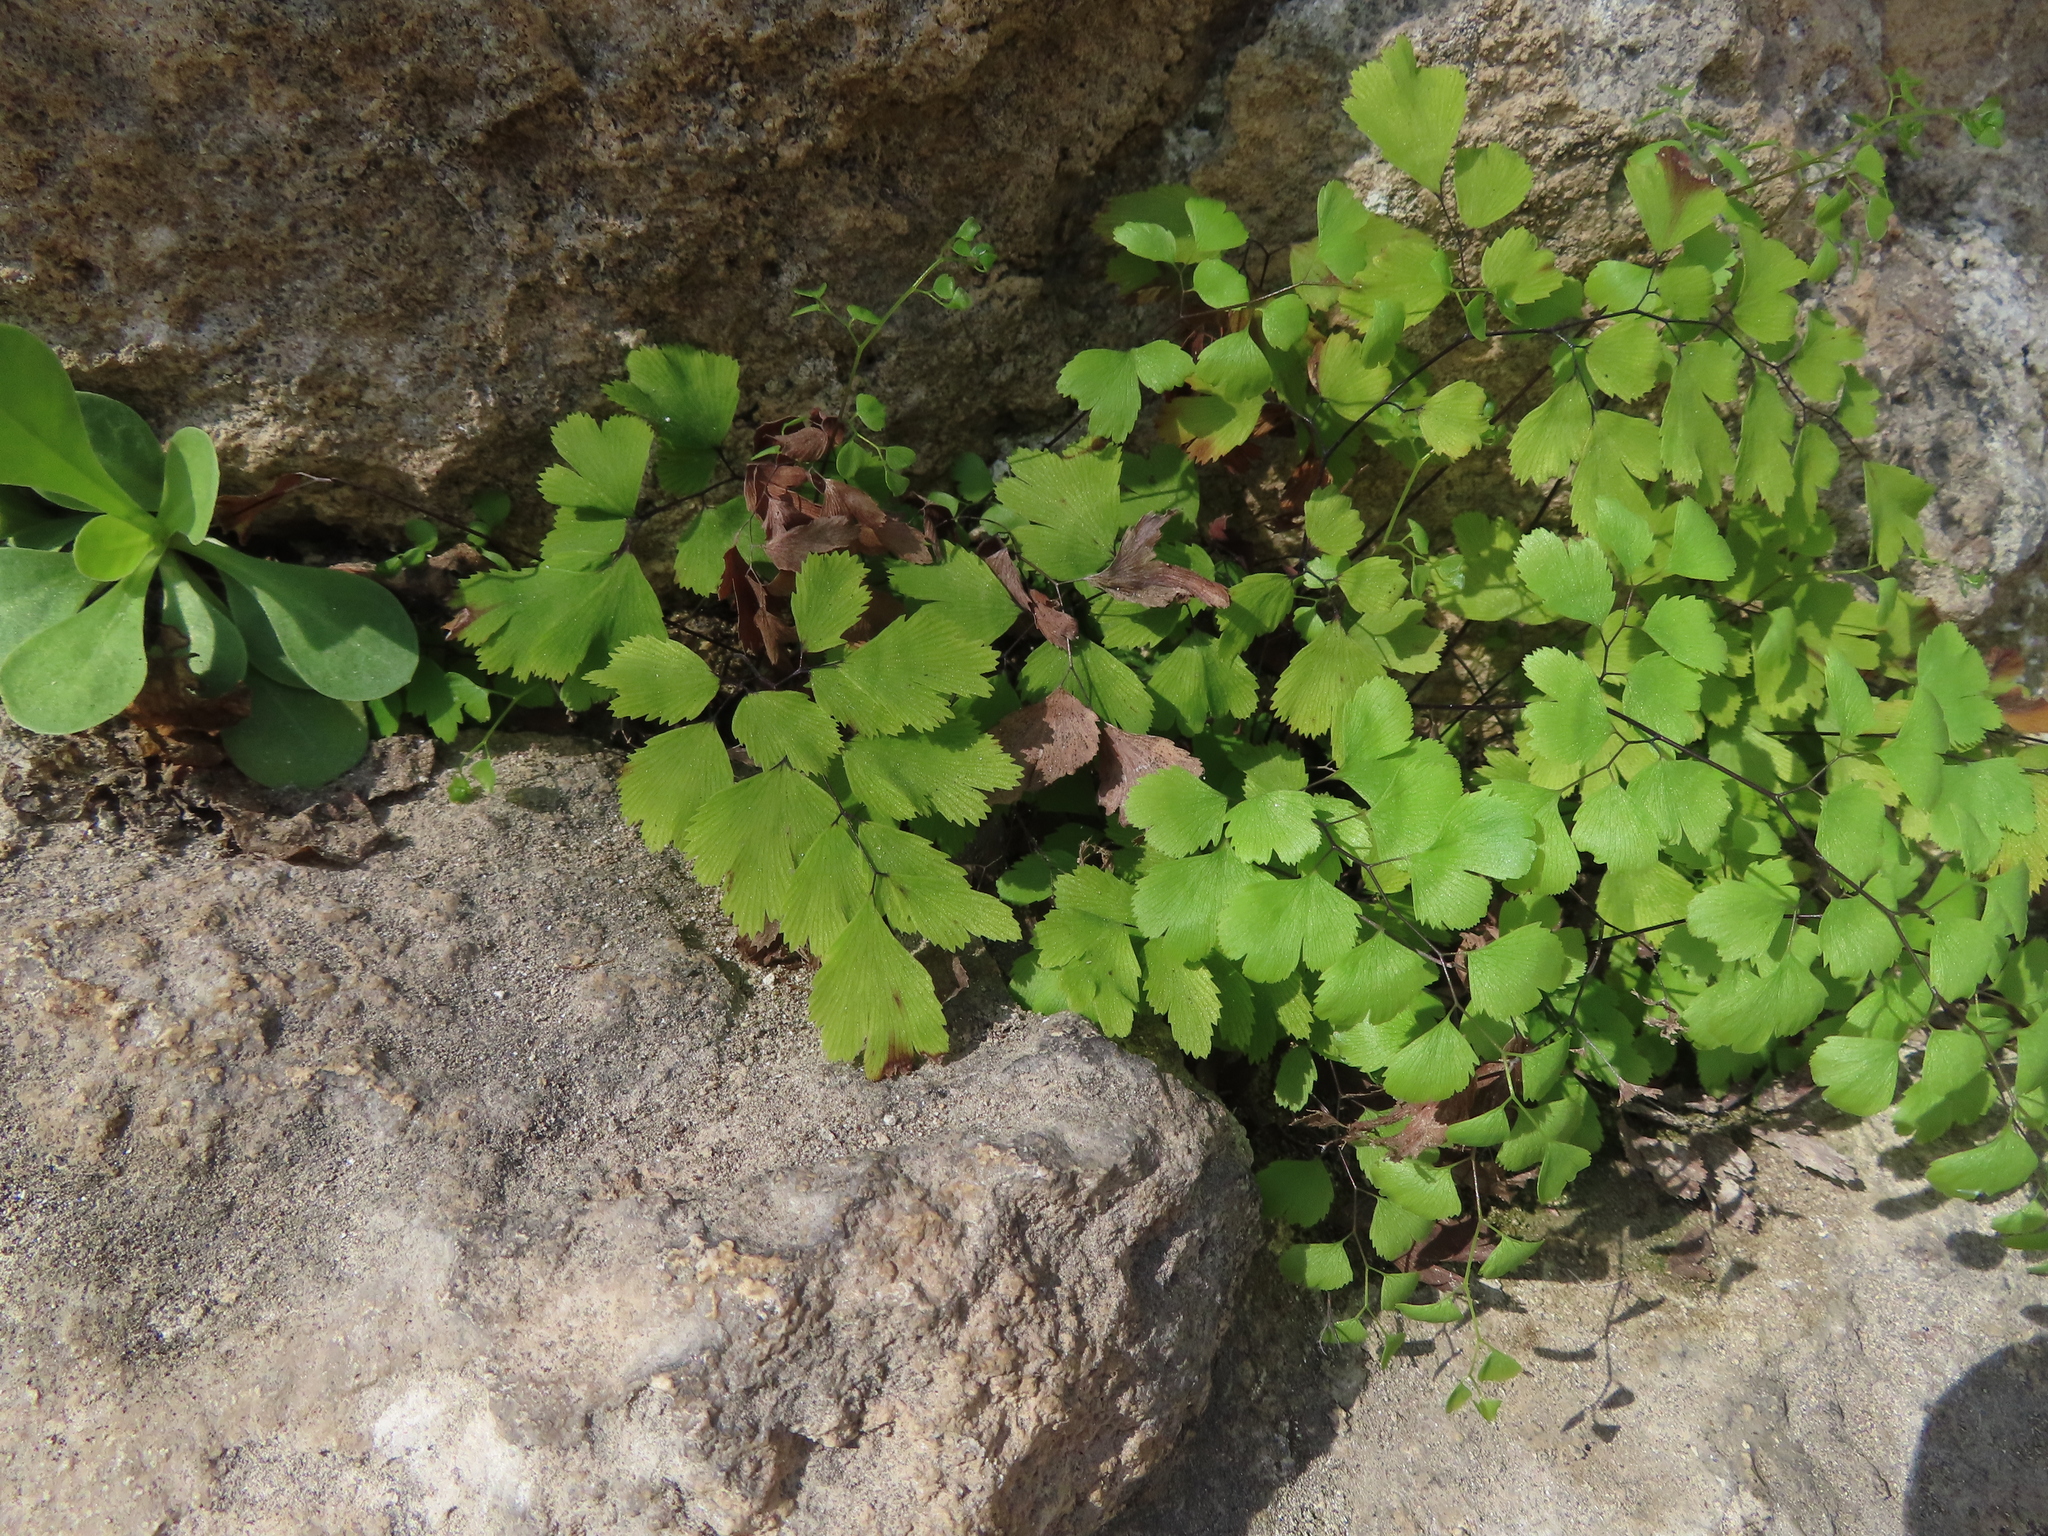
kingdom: Plantae
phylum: Tracheophyta
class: Polypodiopsida
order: Polypodiales
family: Pteridaceae
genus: Adiantum
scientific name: Adiantum capillus-veneris
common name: Maidenhair fern
